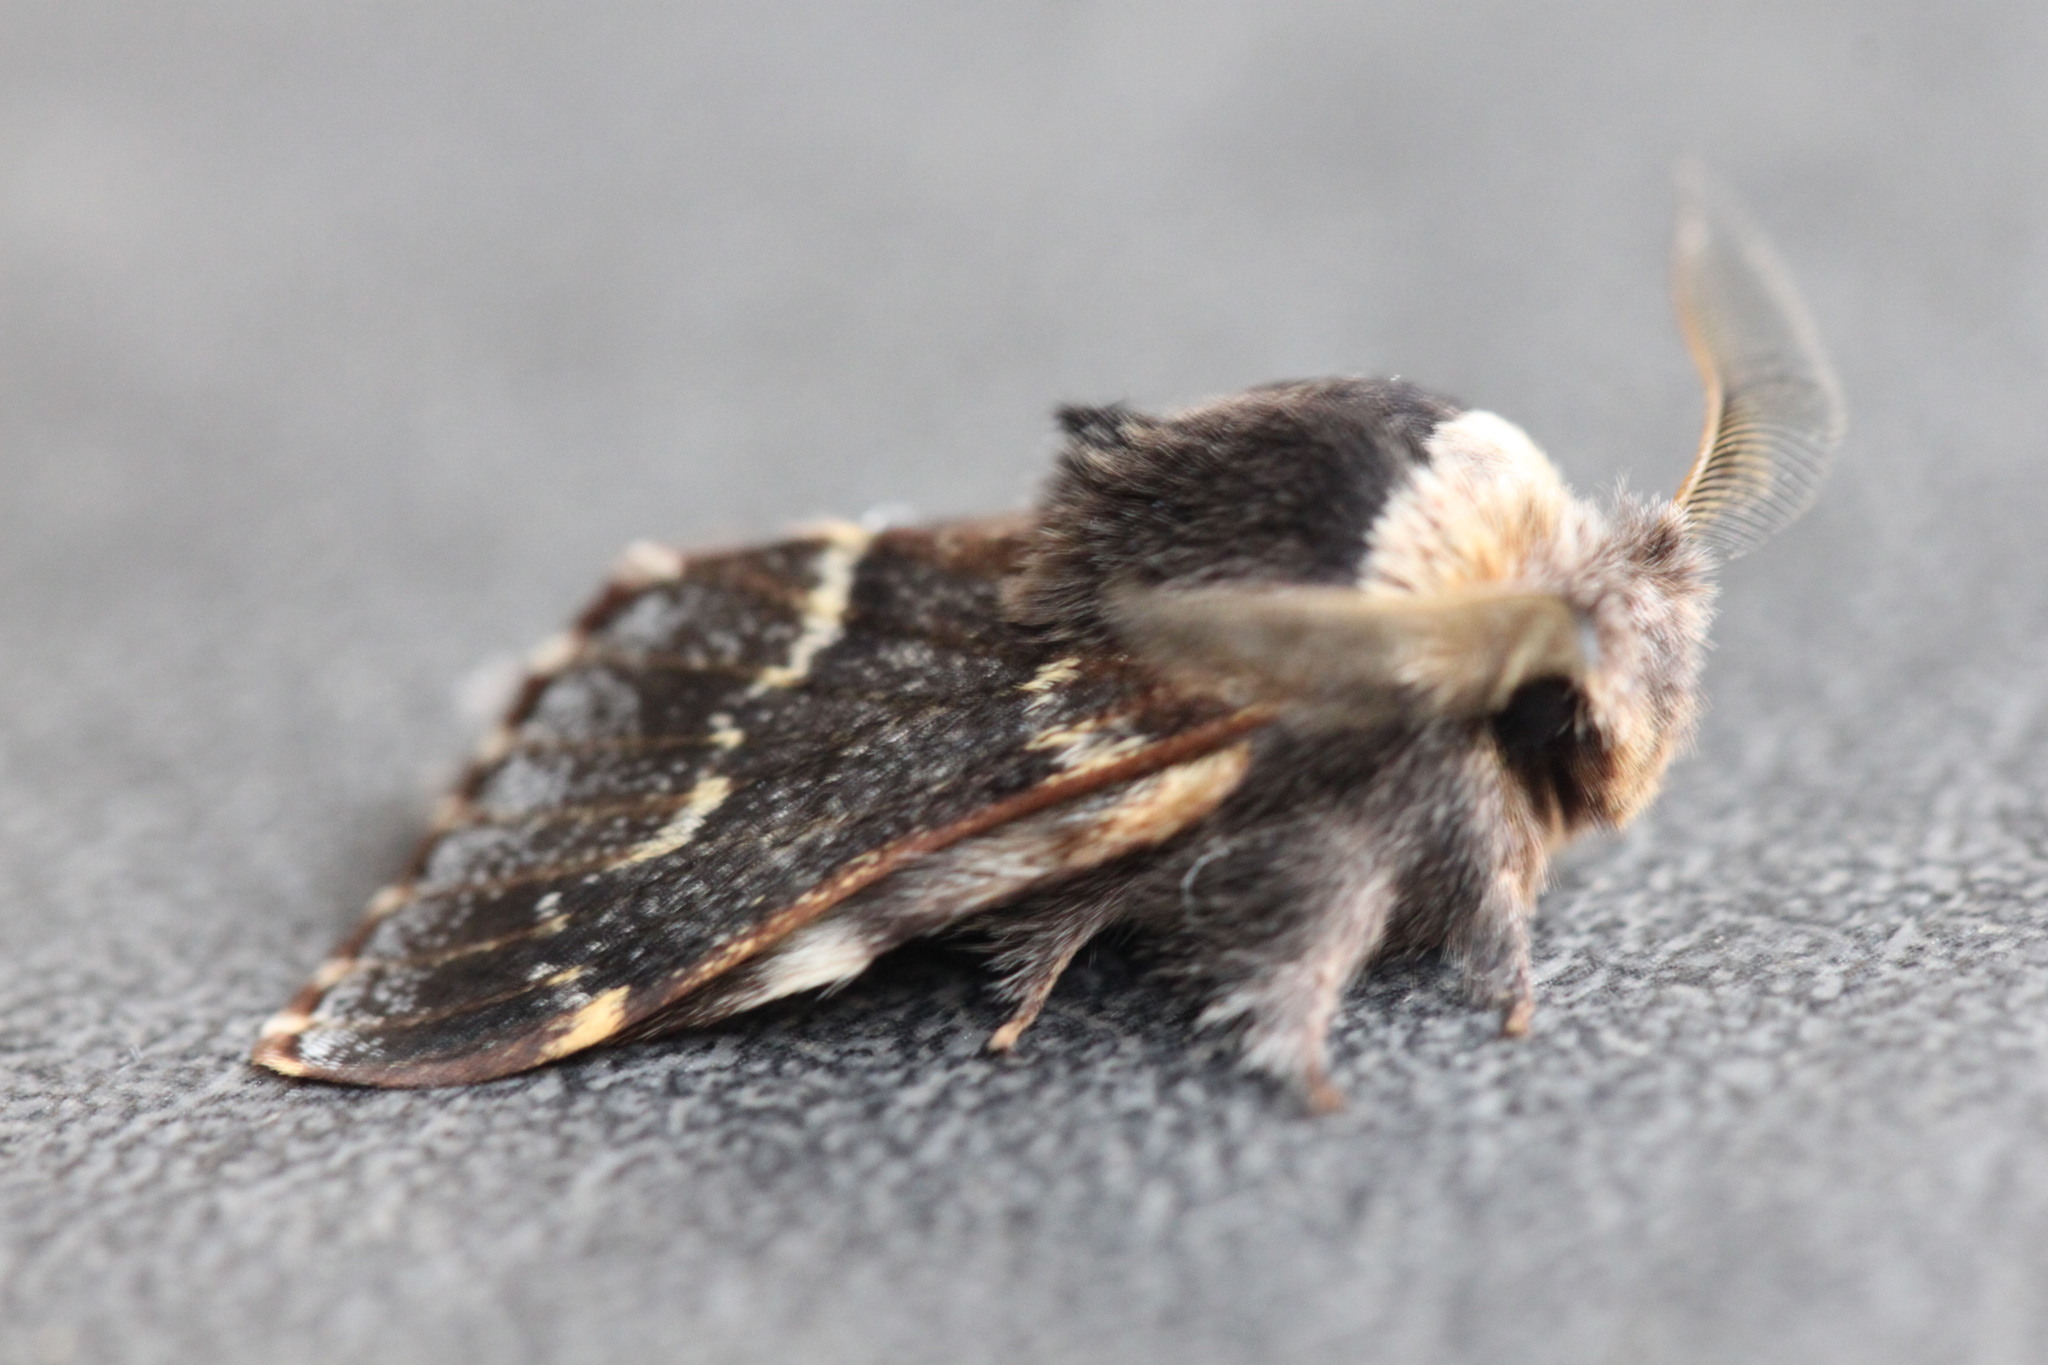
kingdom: Animalia
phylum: Arthropoda
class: Insecta
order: Lepidoptera
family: Lasiocampidae
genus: Poecilocampa
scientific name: Poecilocampa populi
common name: December moth
